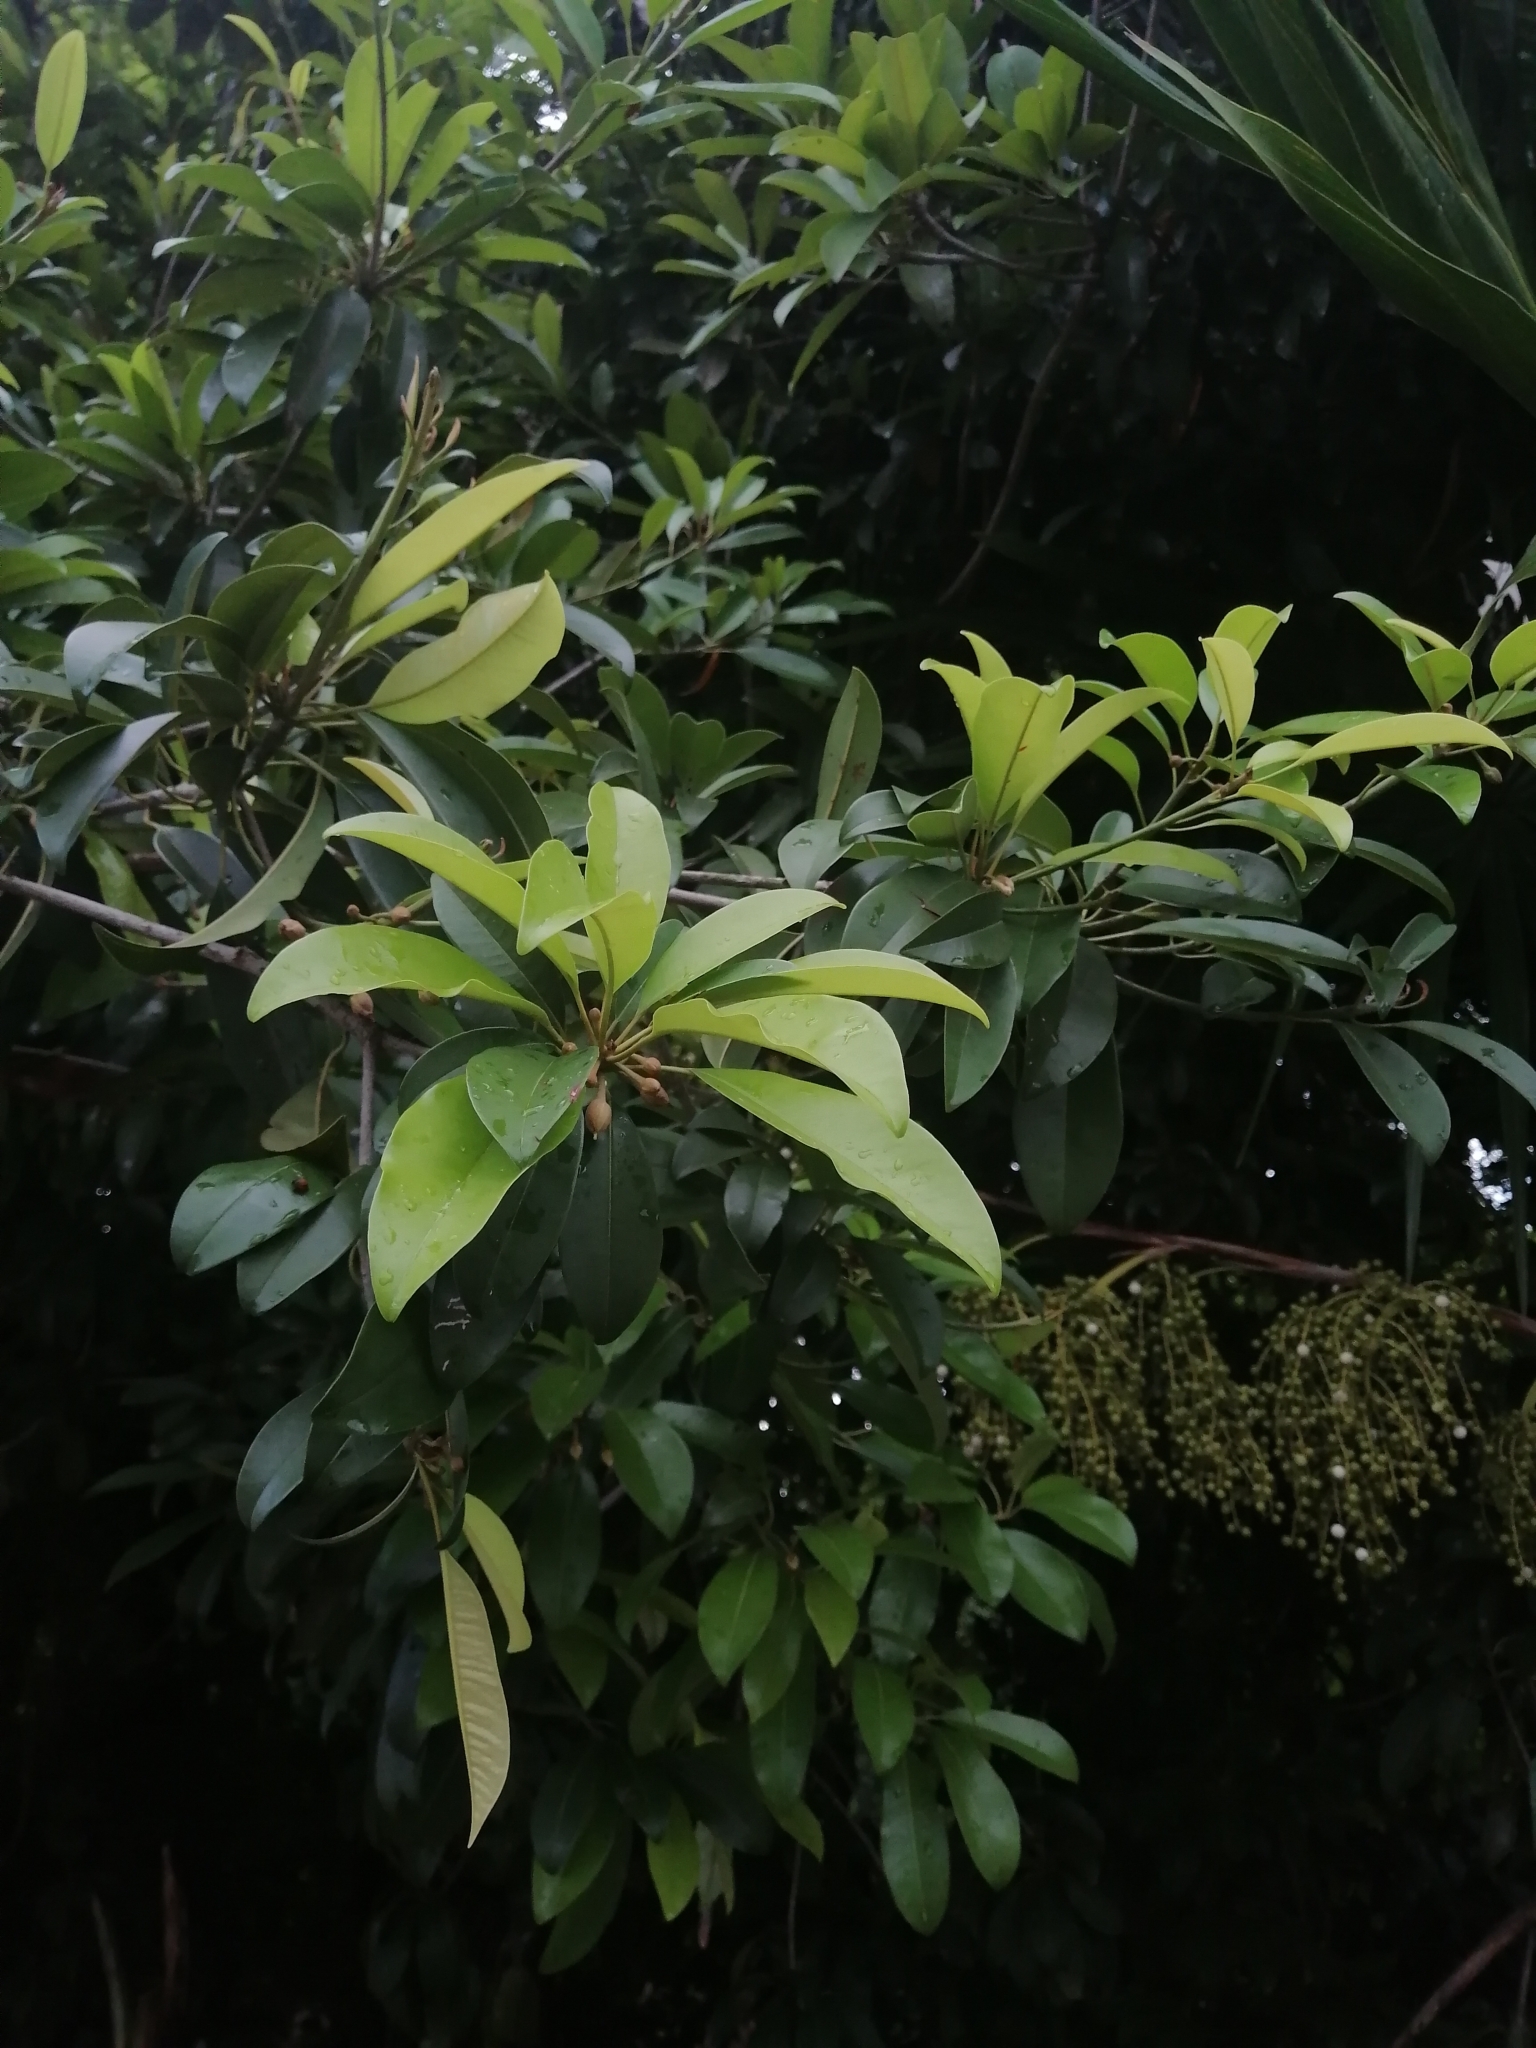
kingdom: Plantae
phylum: Tracheophyta
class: Magnoliopsida
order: Ericales
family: Sapotaceae
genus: Manilkara
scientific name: Manilkara zapota
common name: Sapodilla
